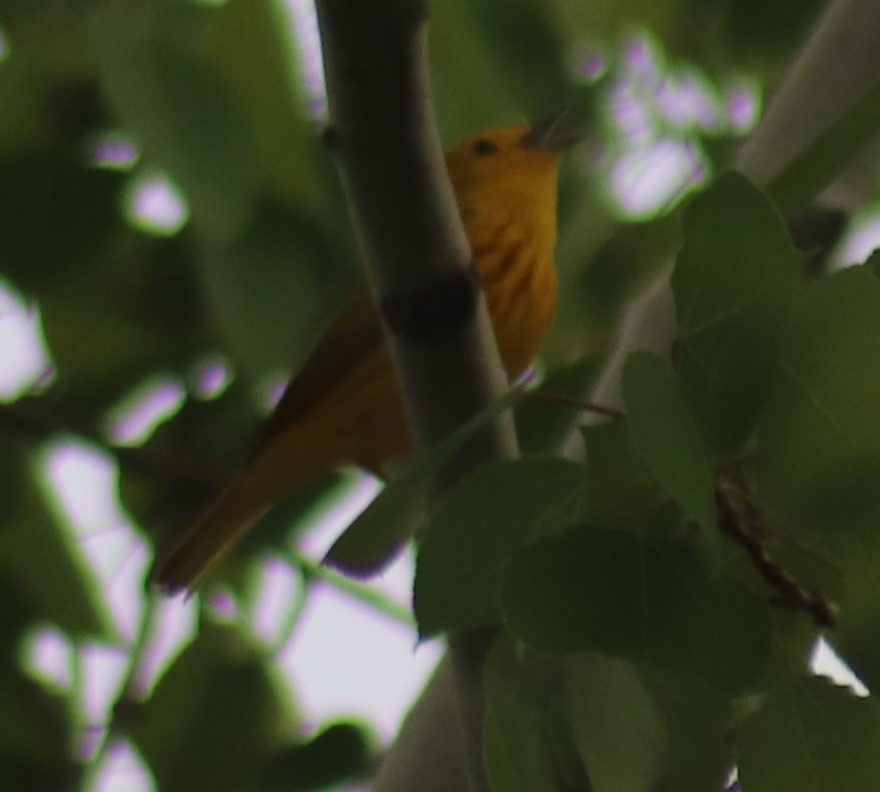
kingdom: Animalia
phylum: Chordata
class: Aves
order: Passeriformes
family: Parulidae
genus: Setophaga
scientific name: Setophaga petechia
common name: Yellow warbler
